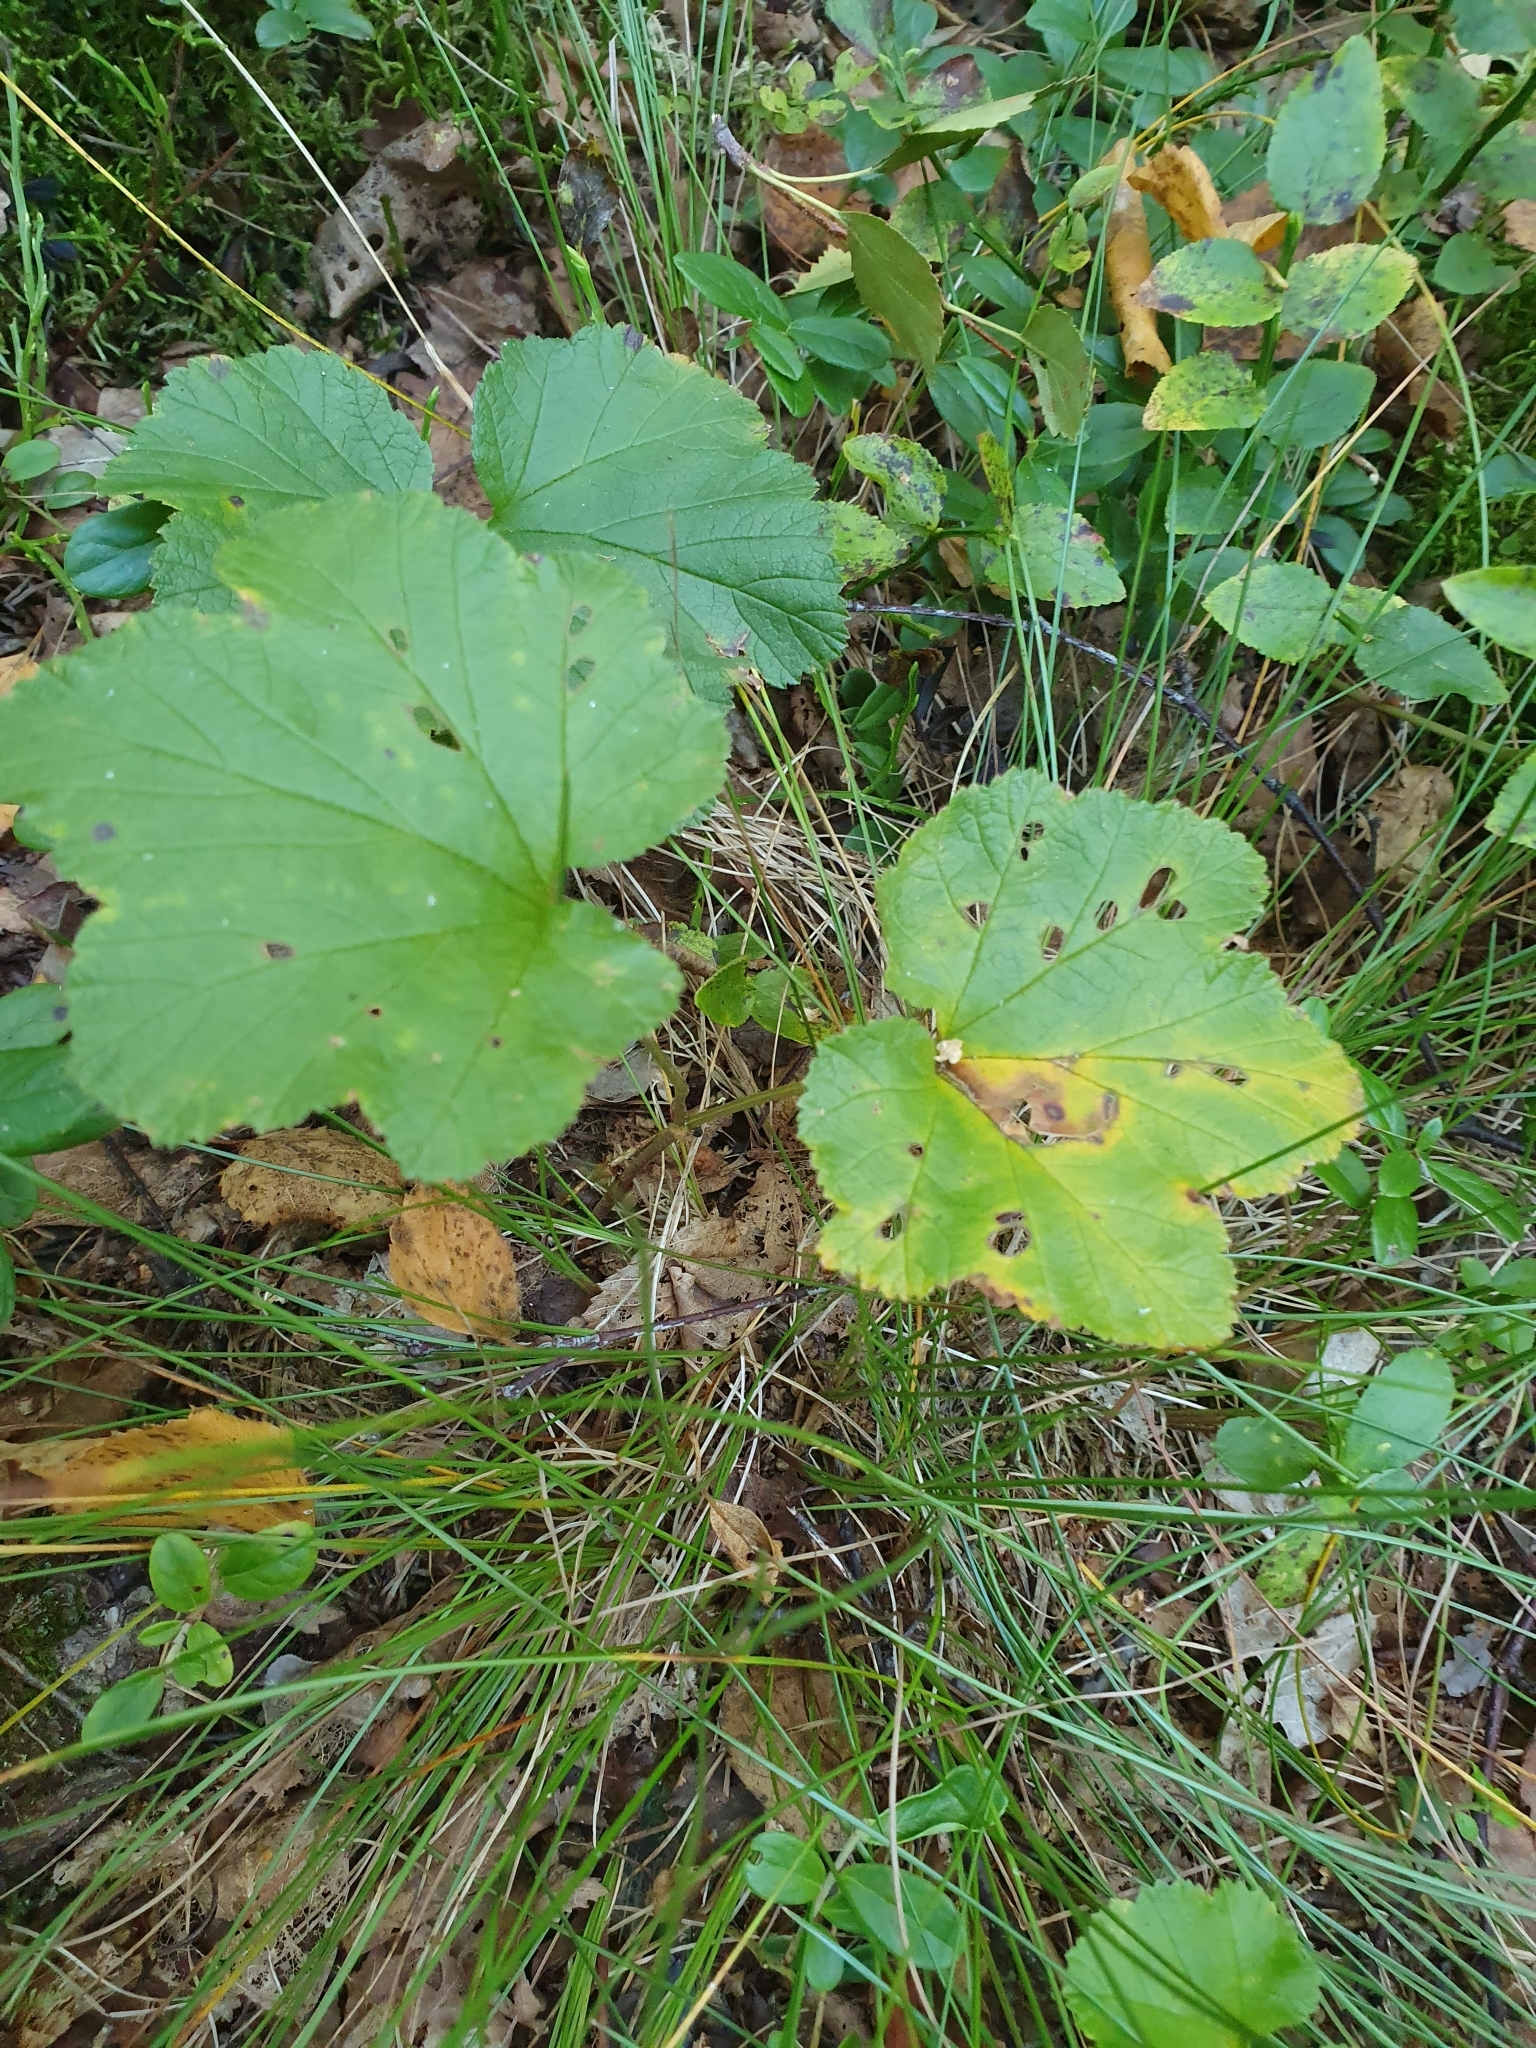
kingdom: Plantae
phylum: Tracheophyta
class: Magnoliopsida
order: Rosales
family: Rosaceae
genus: Rubus
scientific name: Rubus chamaemorus
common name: Cloudberry
